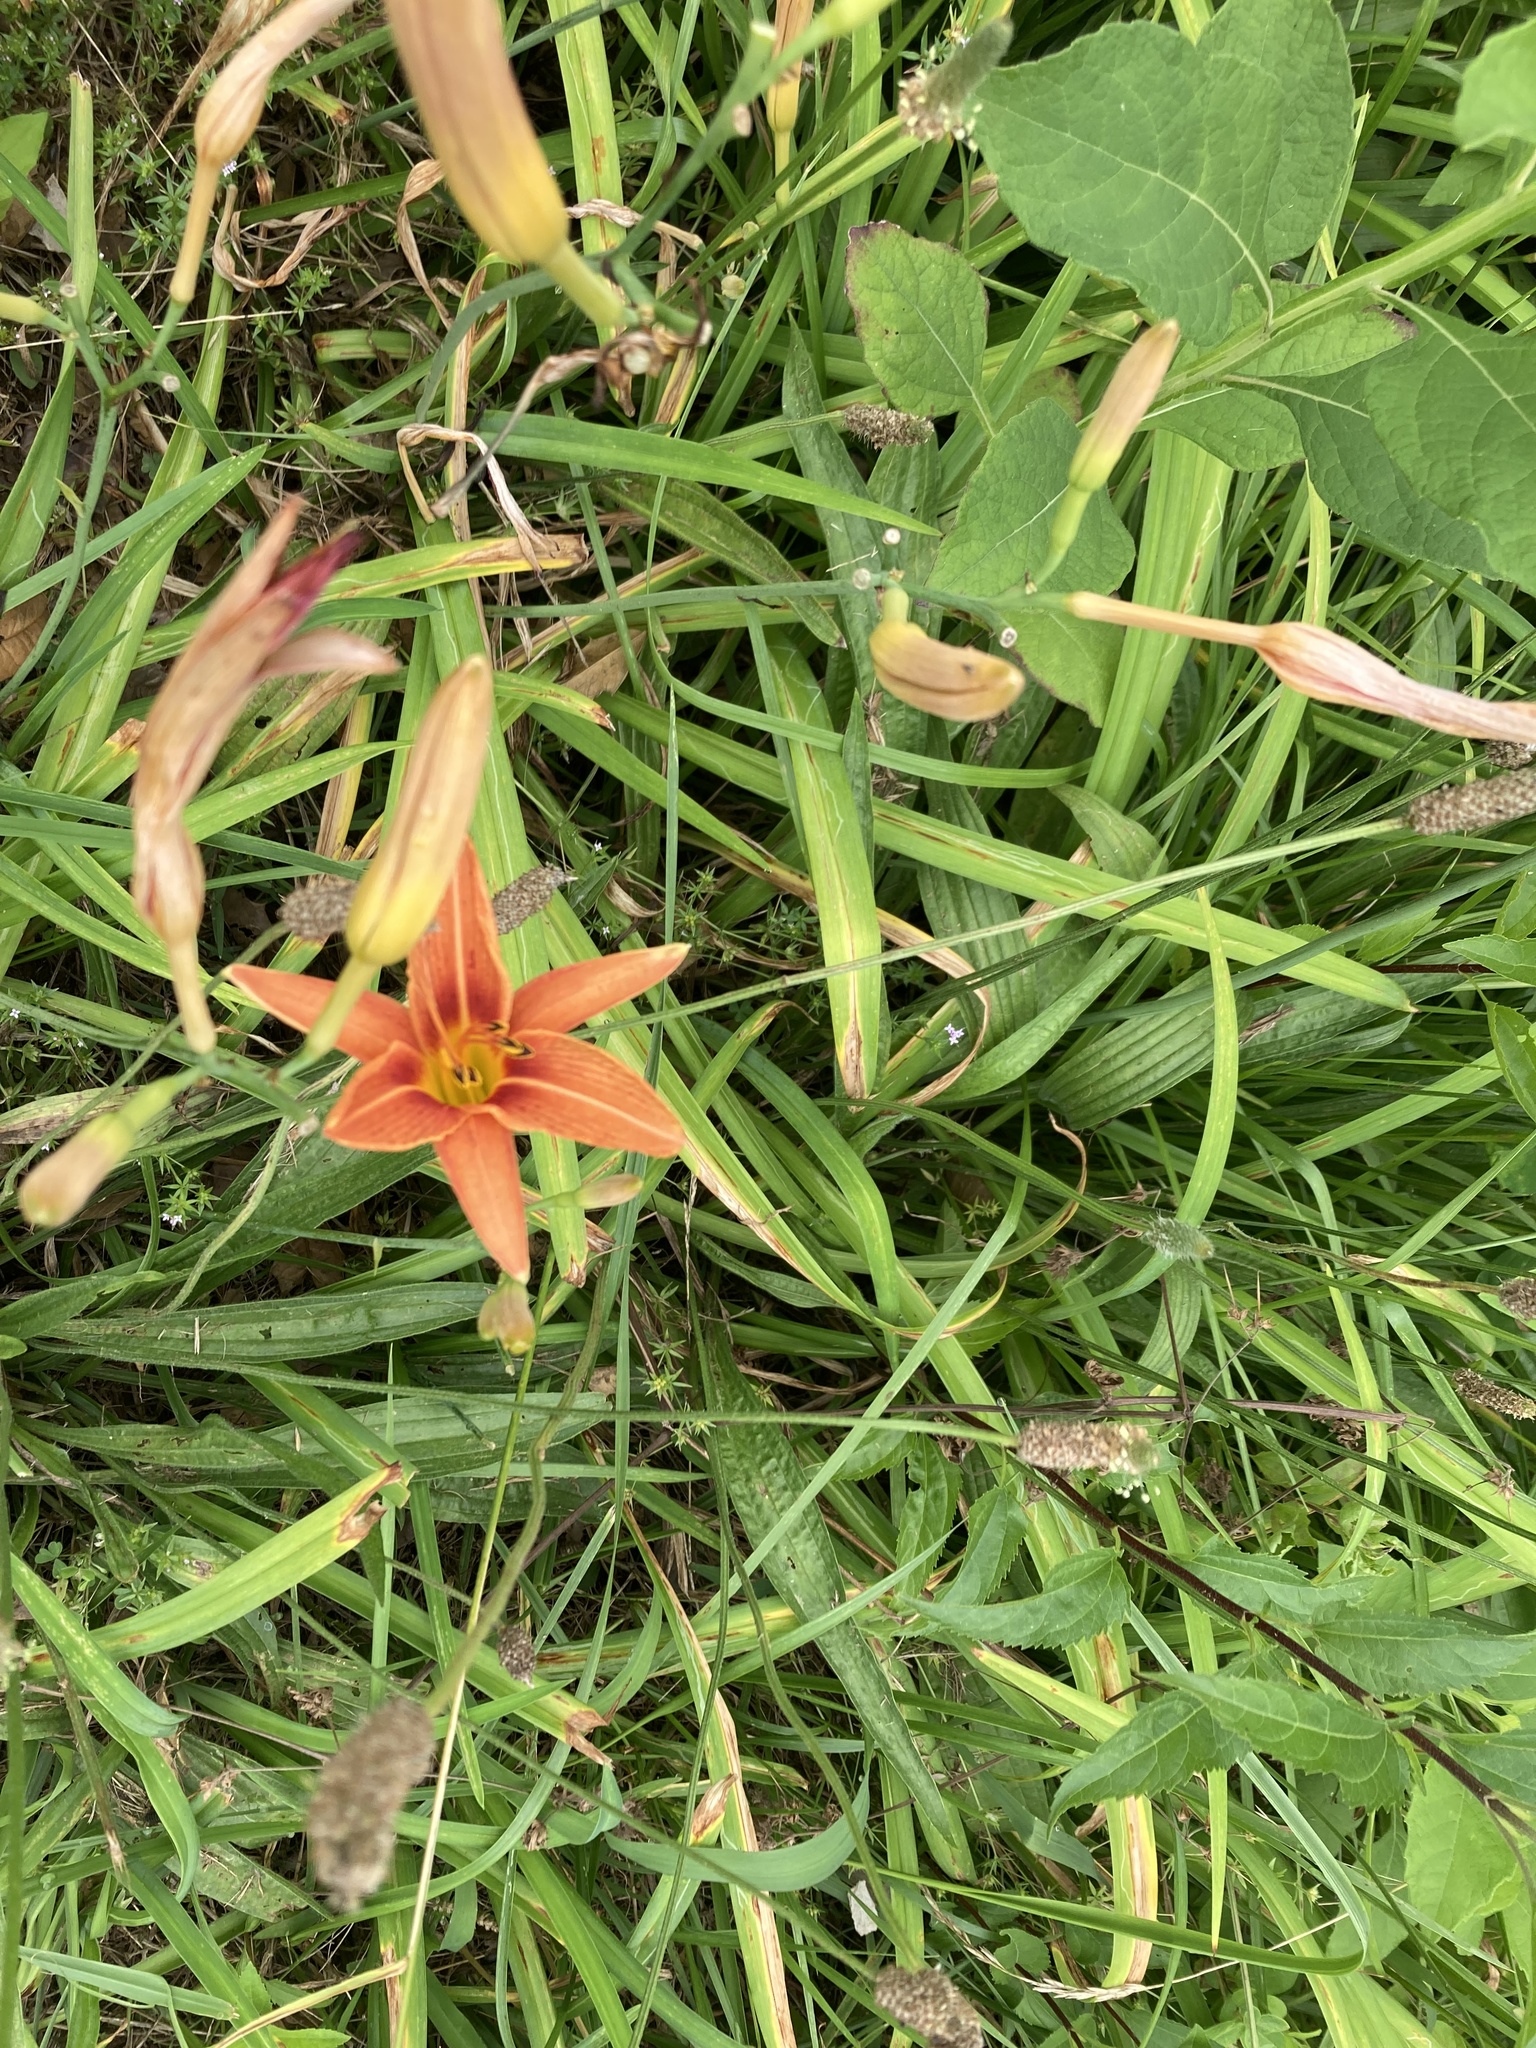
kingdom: Plantae
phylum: Tracheophyta
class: Liliopsida
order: Asparagales
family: Asphodelaceae
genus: Hemerocallis
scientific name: Hemerocallis fulva
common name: Orange day-lily
